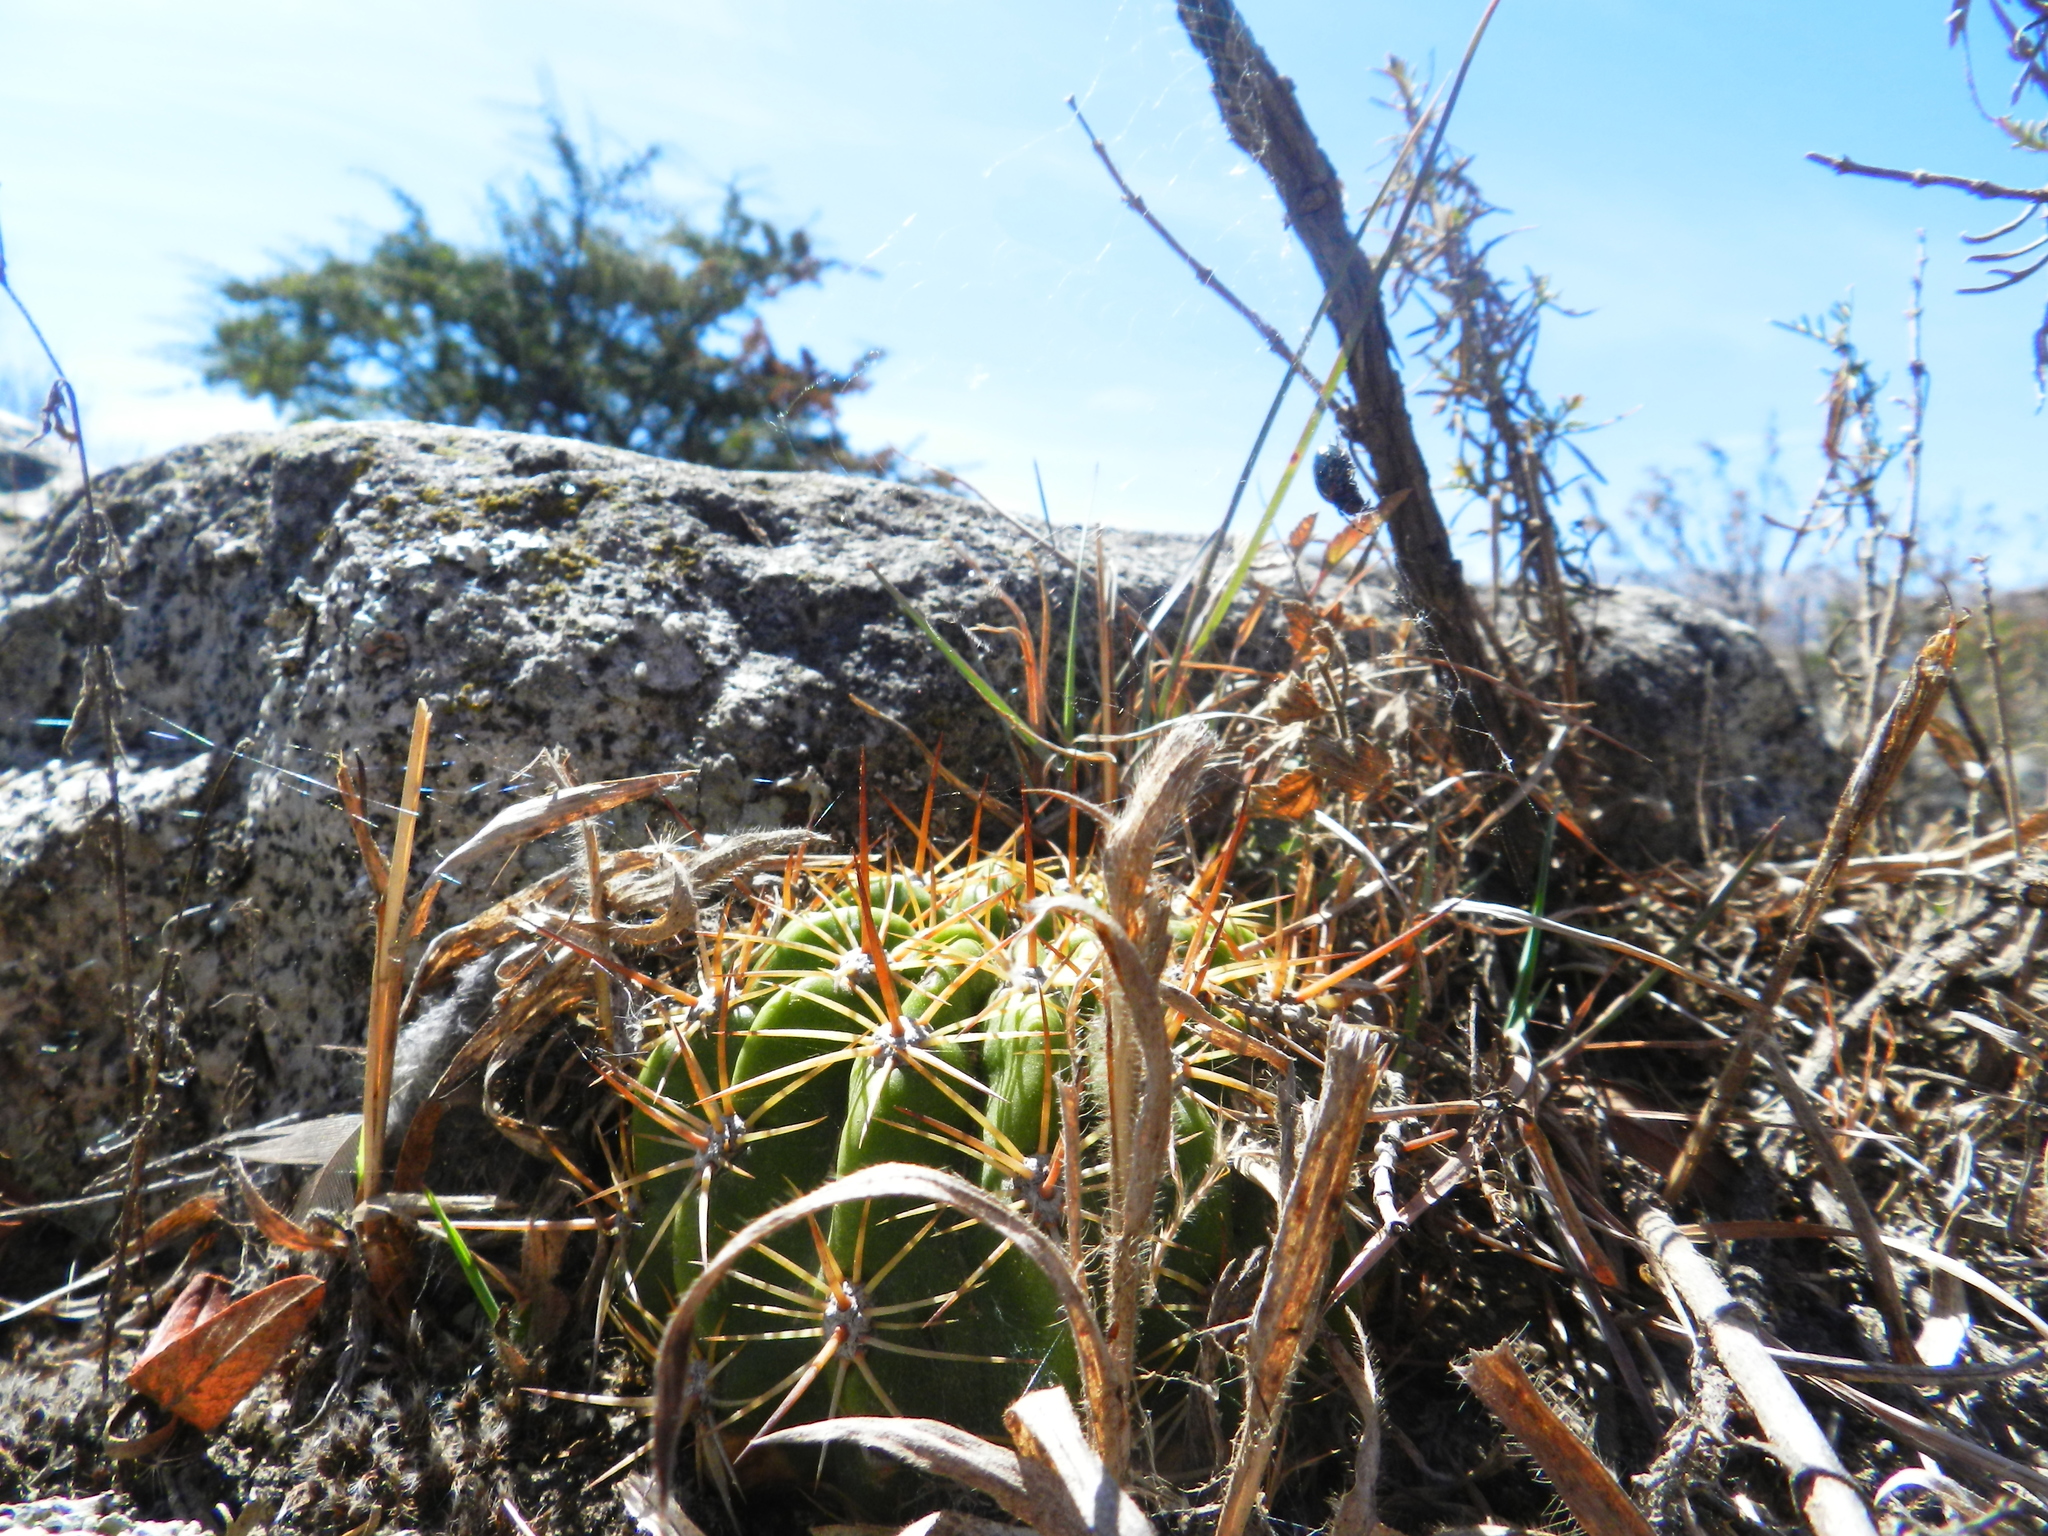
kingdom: Plantae
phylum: Tracheophyta
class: Magnoliopsida
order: Caryophyllales
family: Cactaceae
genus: Soehrensia
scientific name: Soehrensia bruchii
